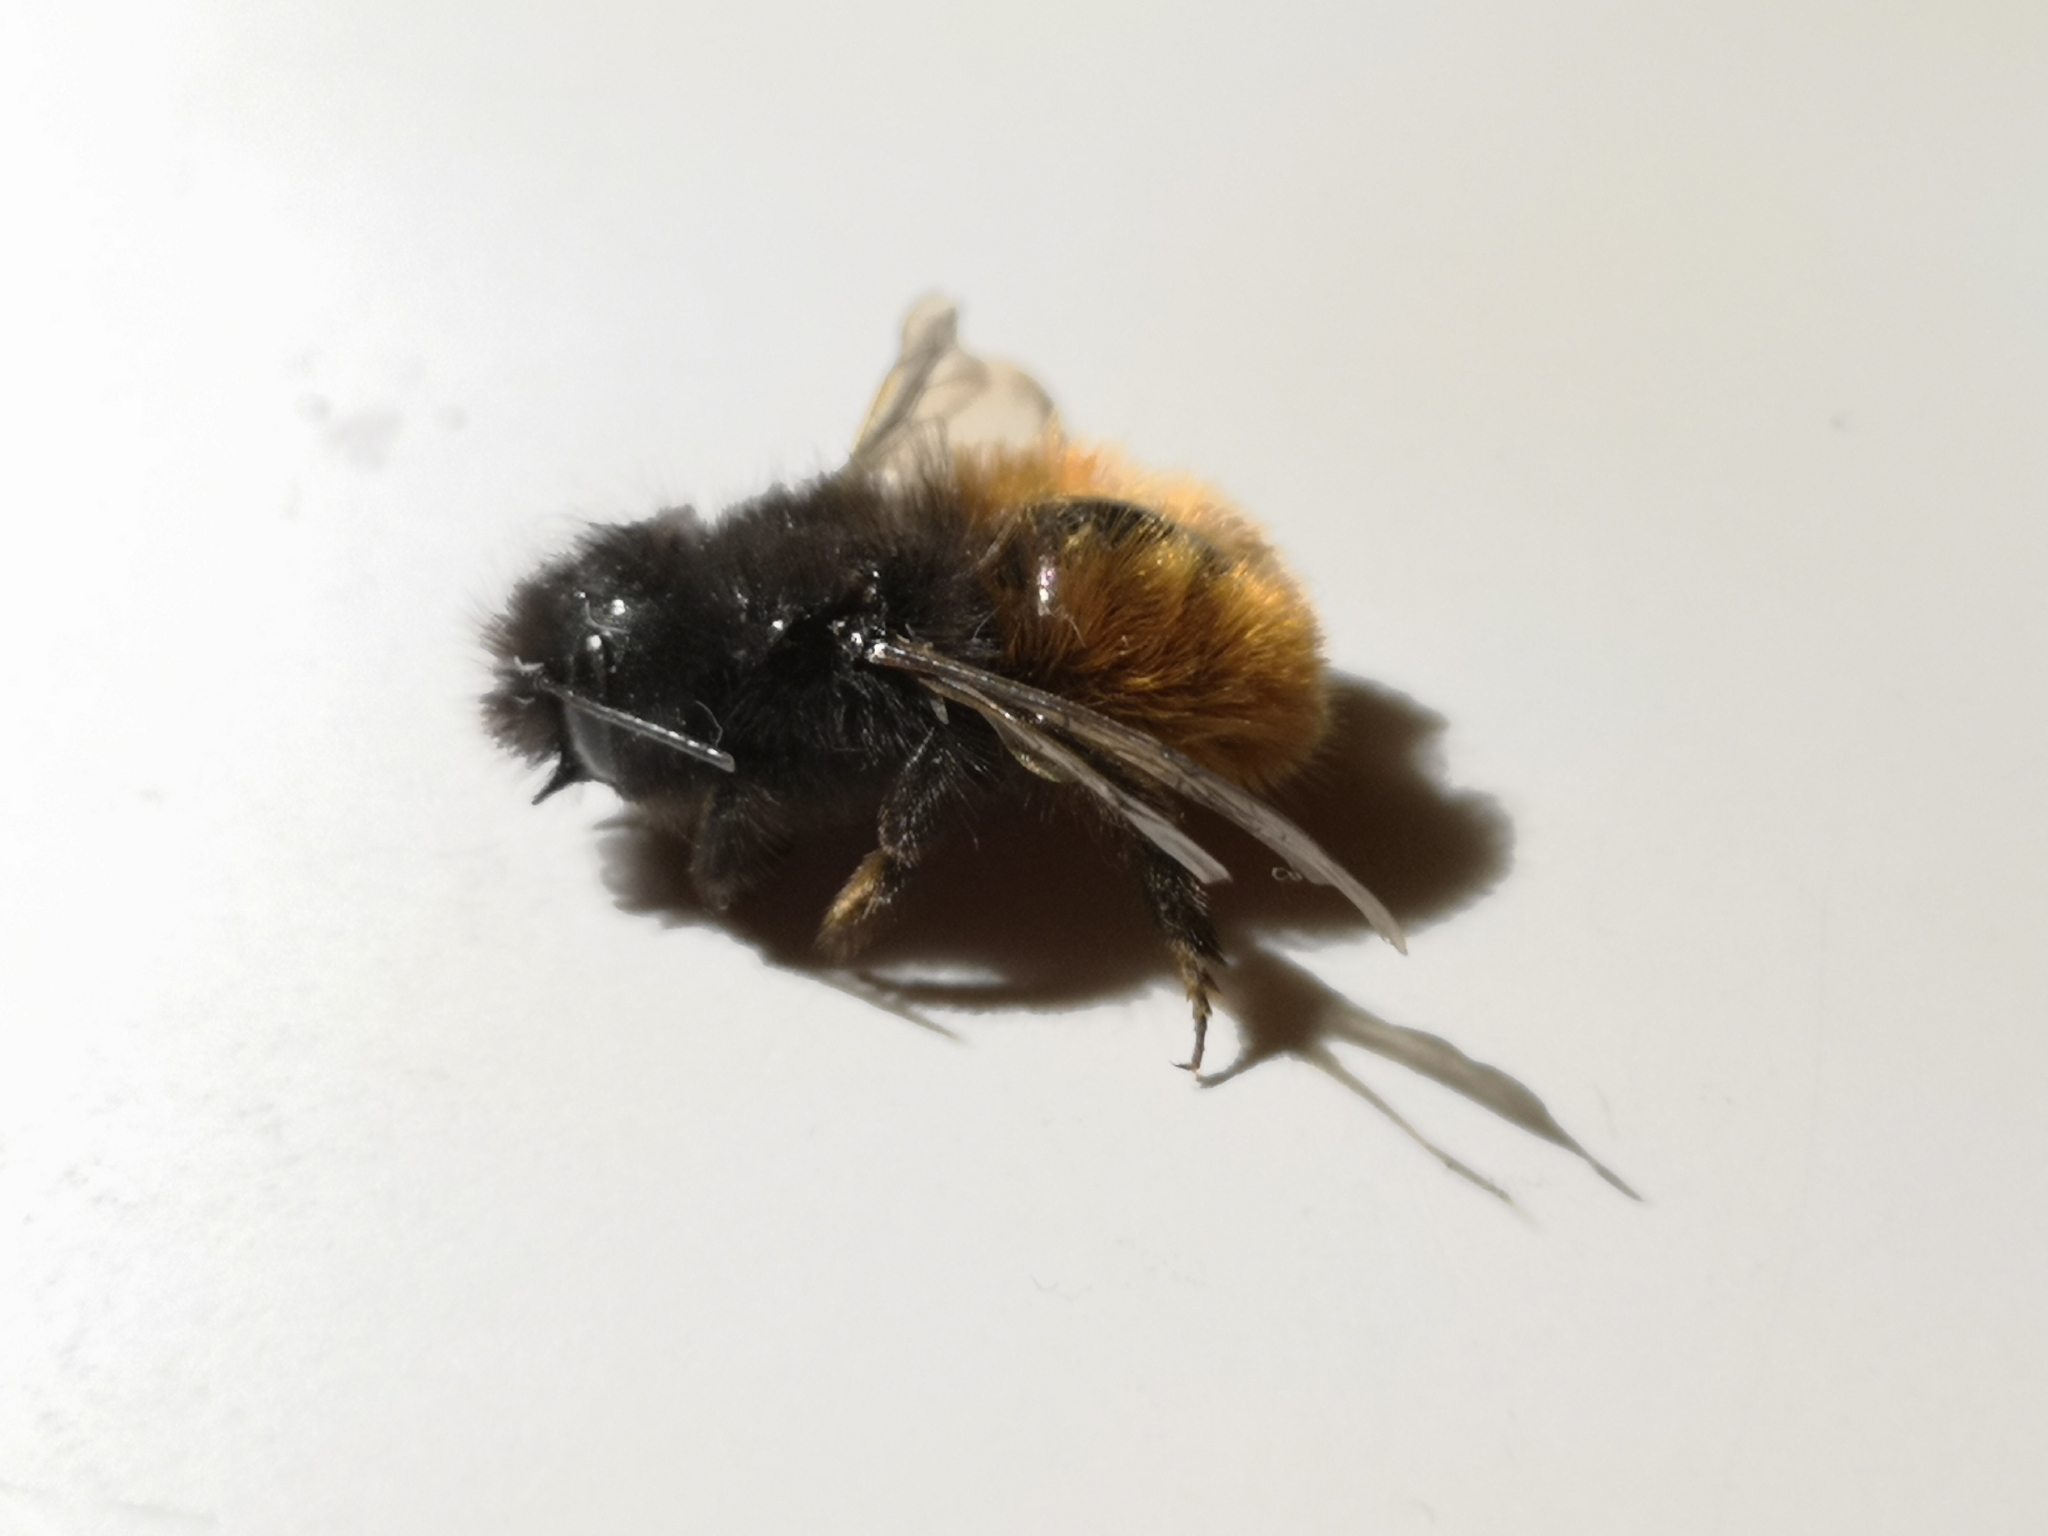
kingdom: Animalia
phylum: Arthropoda
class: Insecta
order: Hymenoptera
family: Megachilidae
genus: Osmia
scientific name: Osmia cornuta
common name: Mason bee
